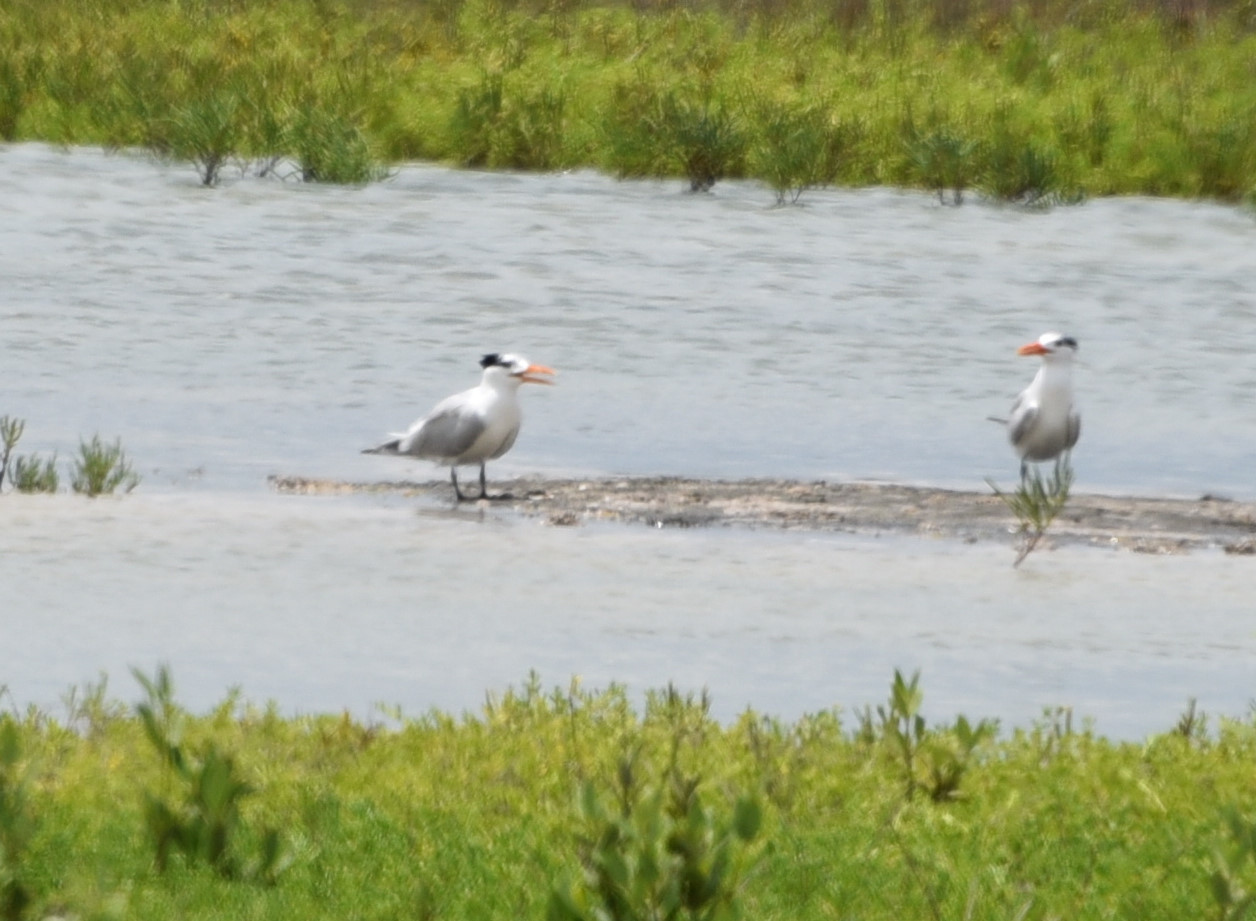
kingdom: Animalia
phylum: Chordata
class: Aves
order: Charadriiformes
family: Laridae
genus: Thalasseus
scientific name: Thalasseus maximus
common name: Royal tern
